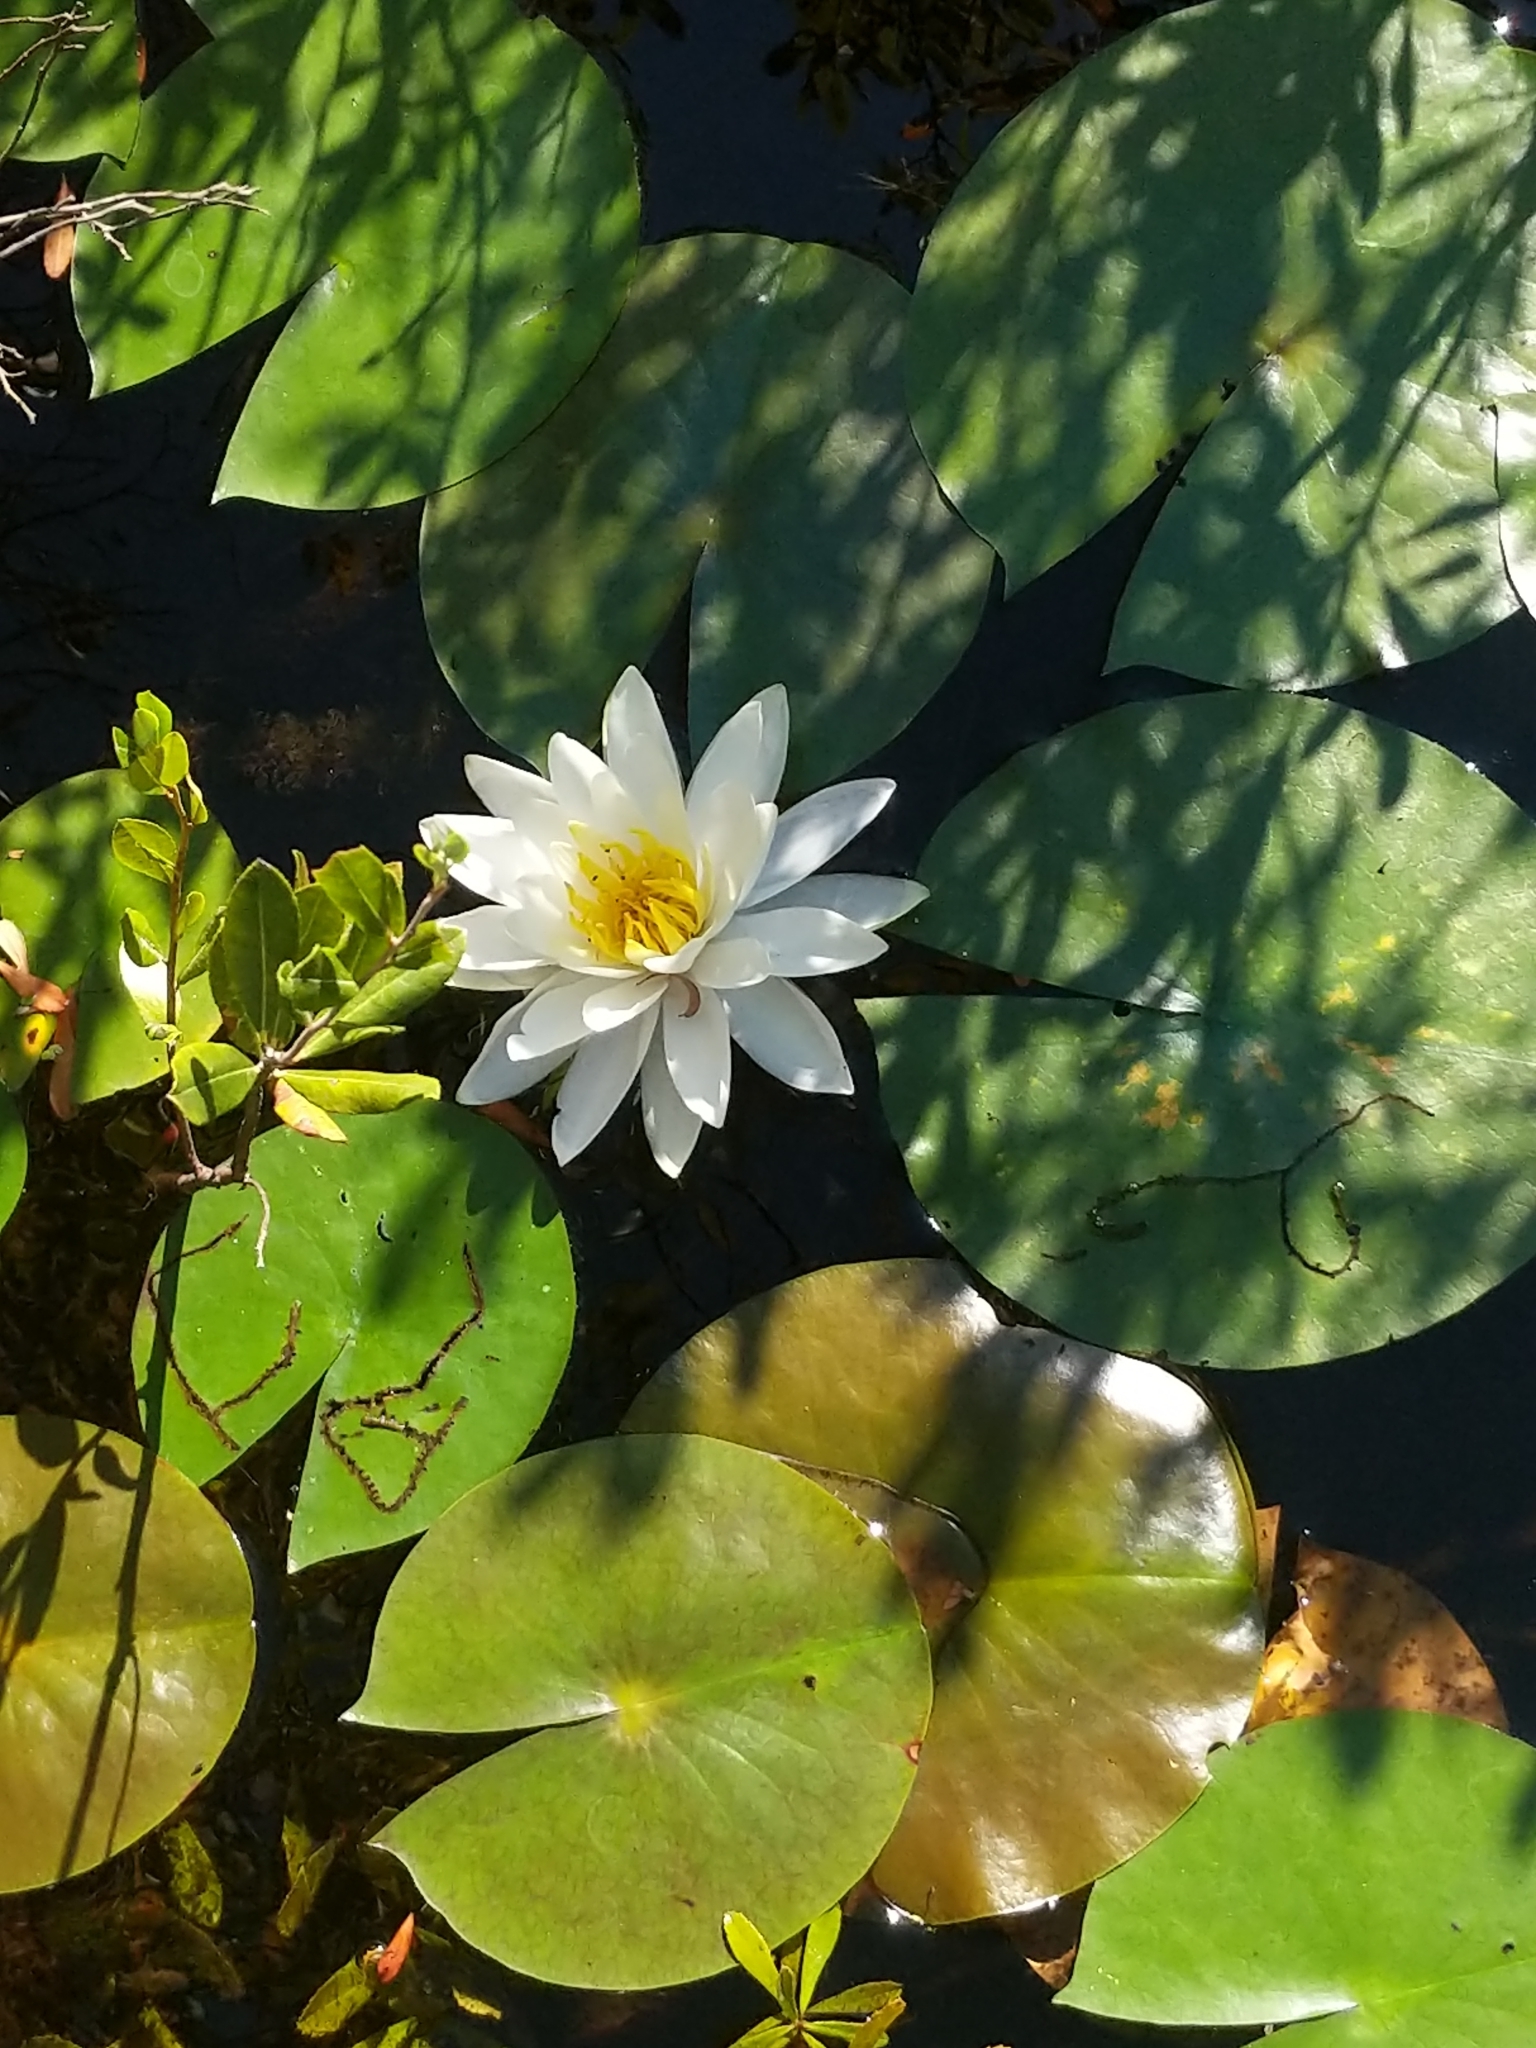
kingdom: Plantae
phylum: Tracheophyta
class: Magnoliopsida
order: Nymphaeales
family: Nymphaeaceae
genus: Nymphaea
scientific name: Nymphaea odorata
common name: Fragrant water-lily
